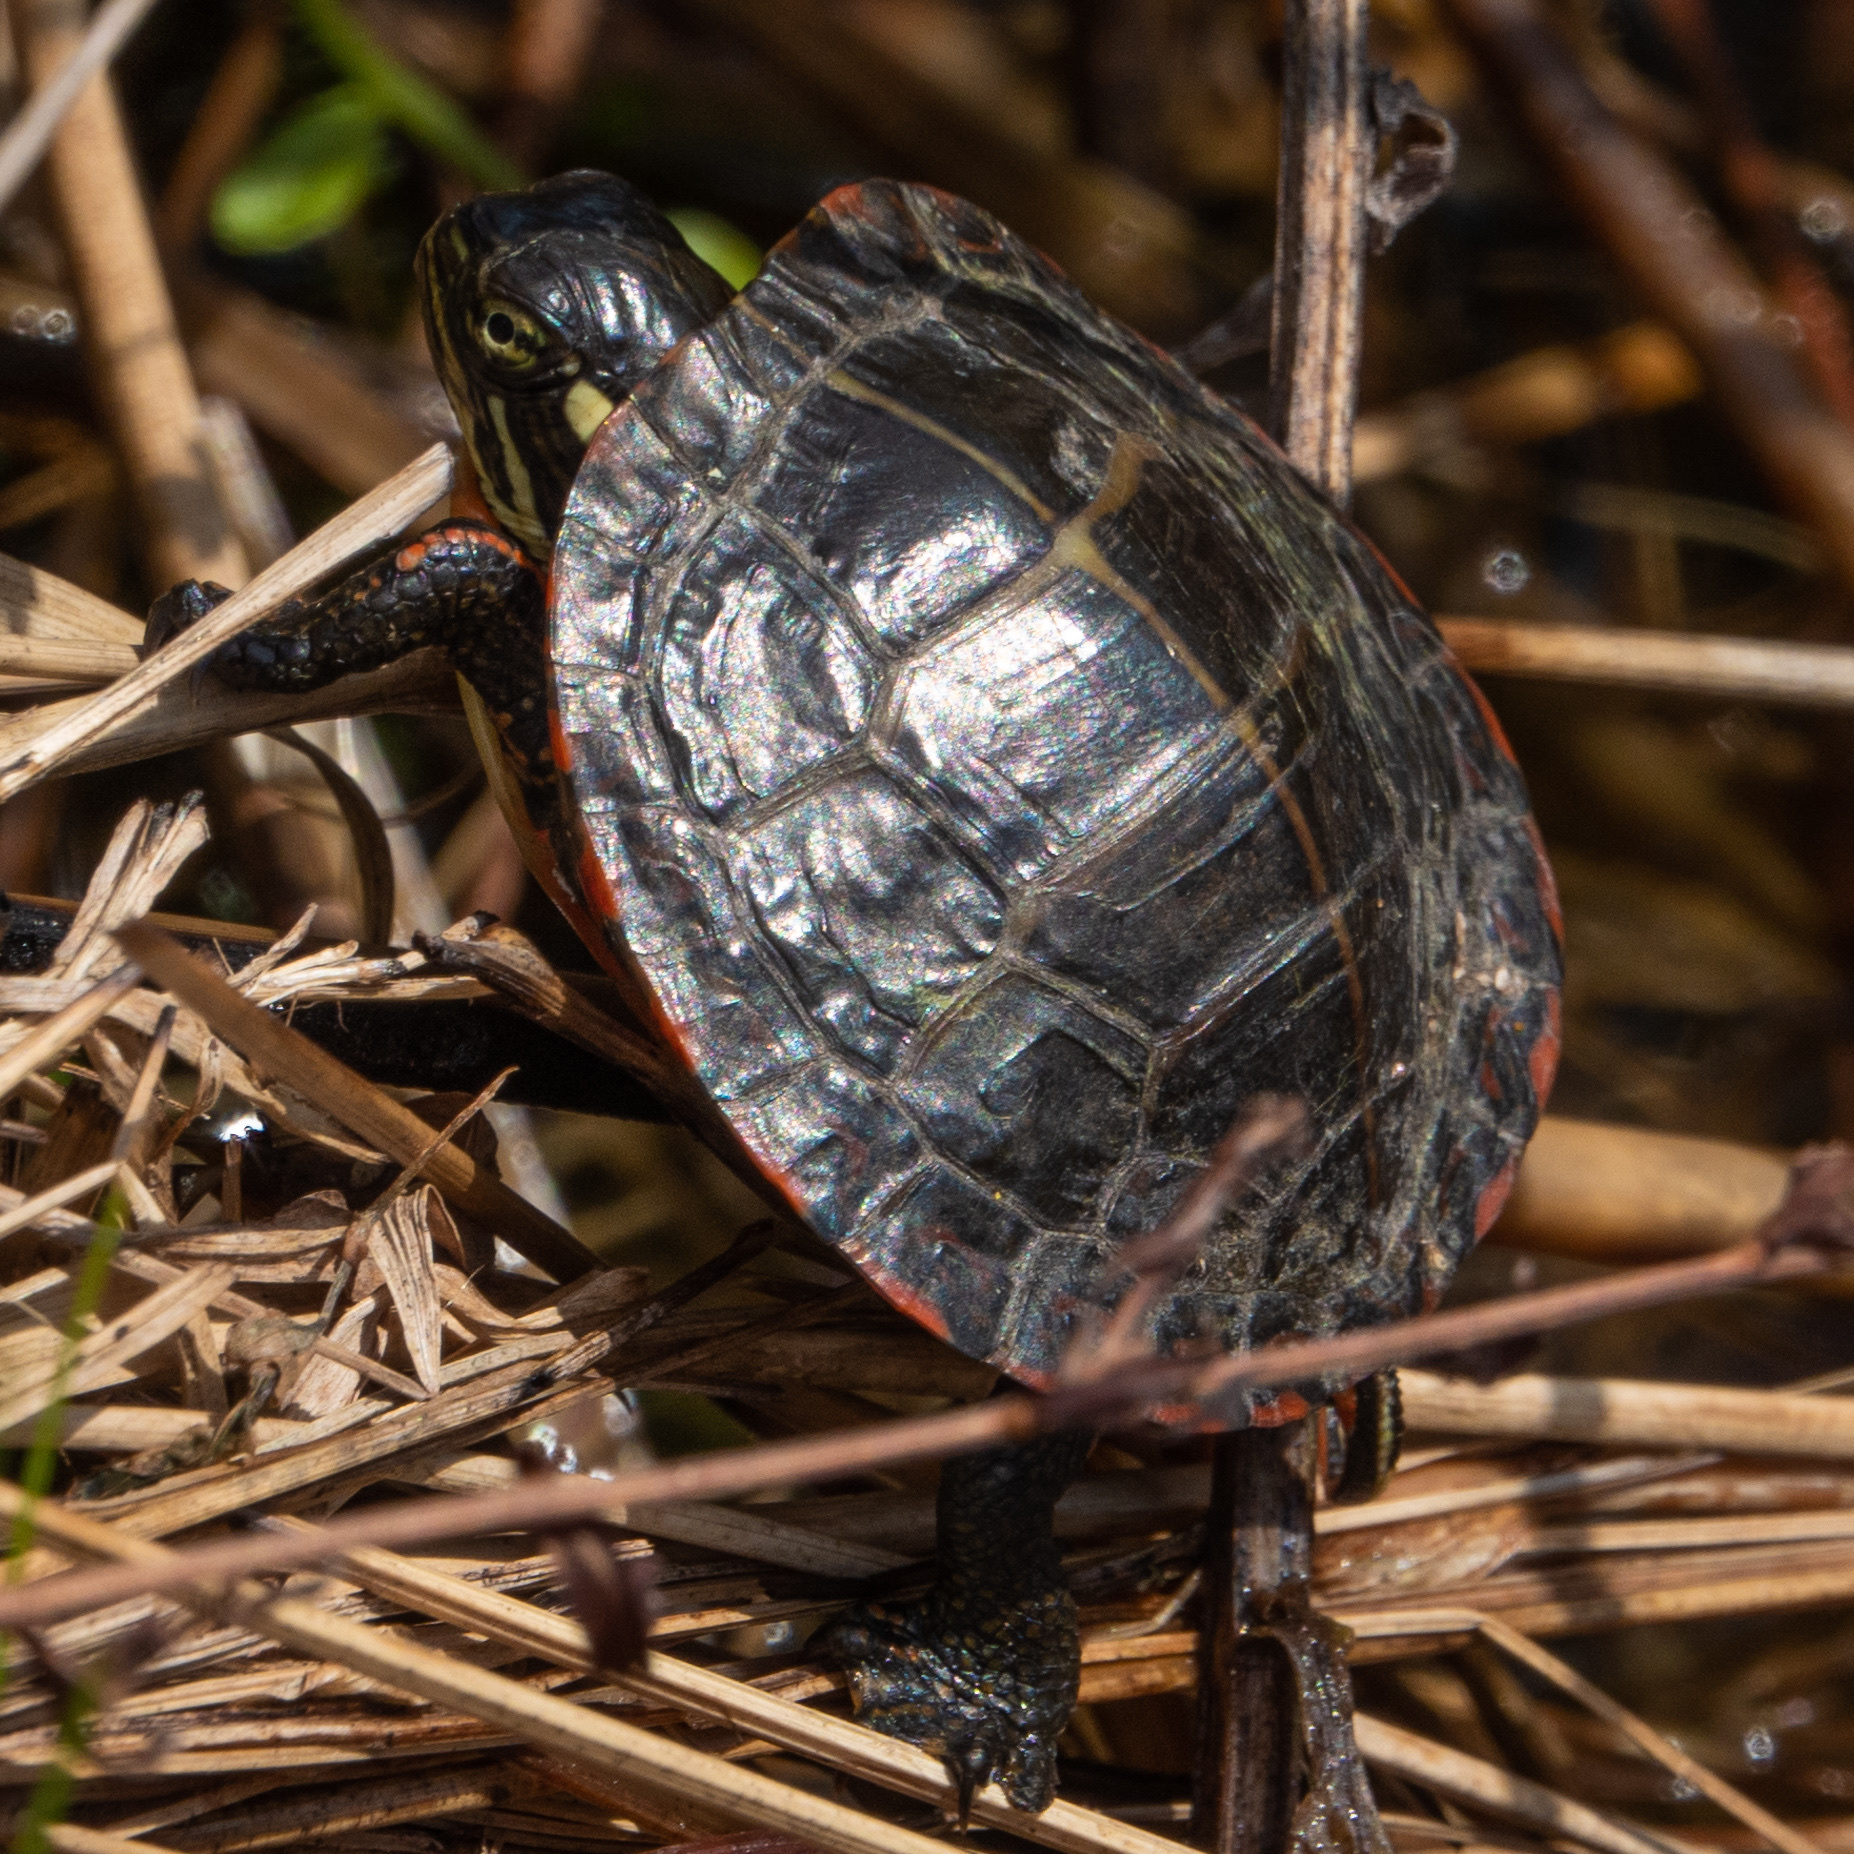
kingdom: Animalia
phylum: Chordata
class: Testudines
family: Emydidae
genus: Chrysemys
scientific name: Chrysemys picta
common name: Painted turtle
